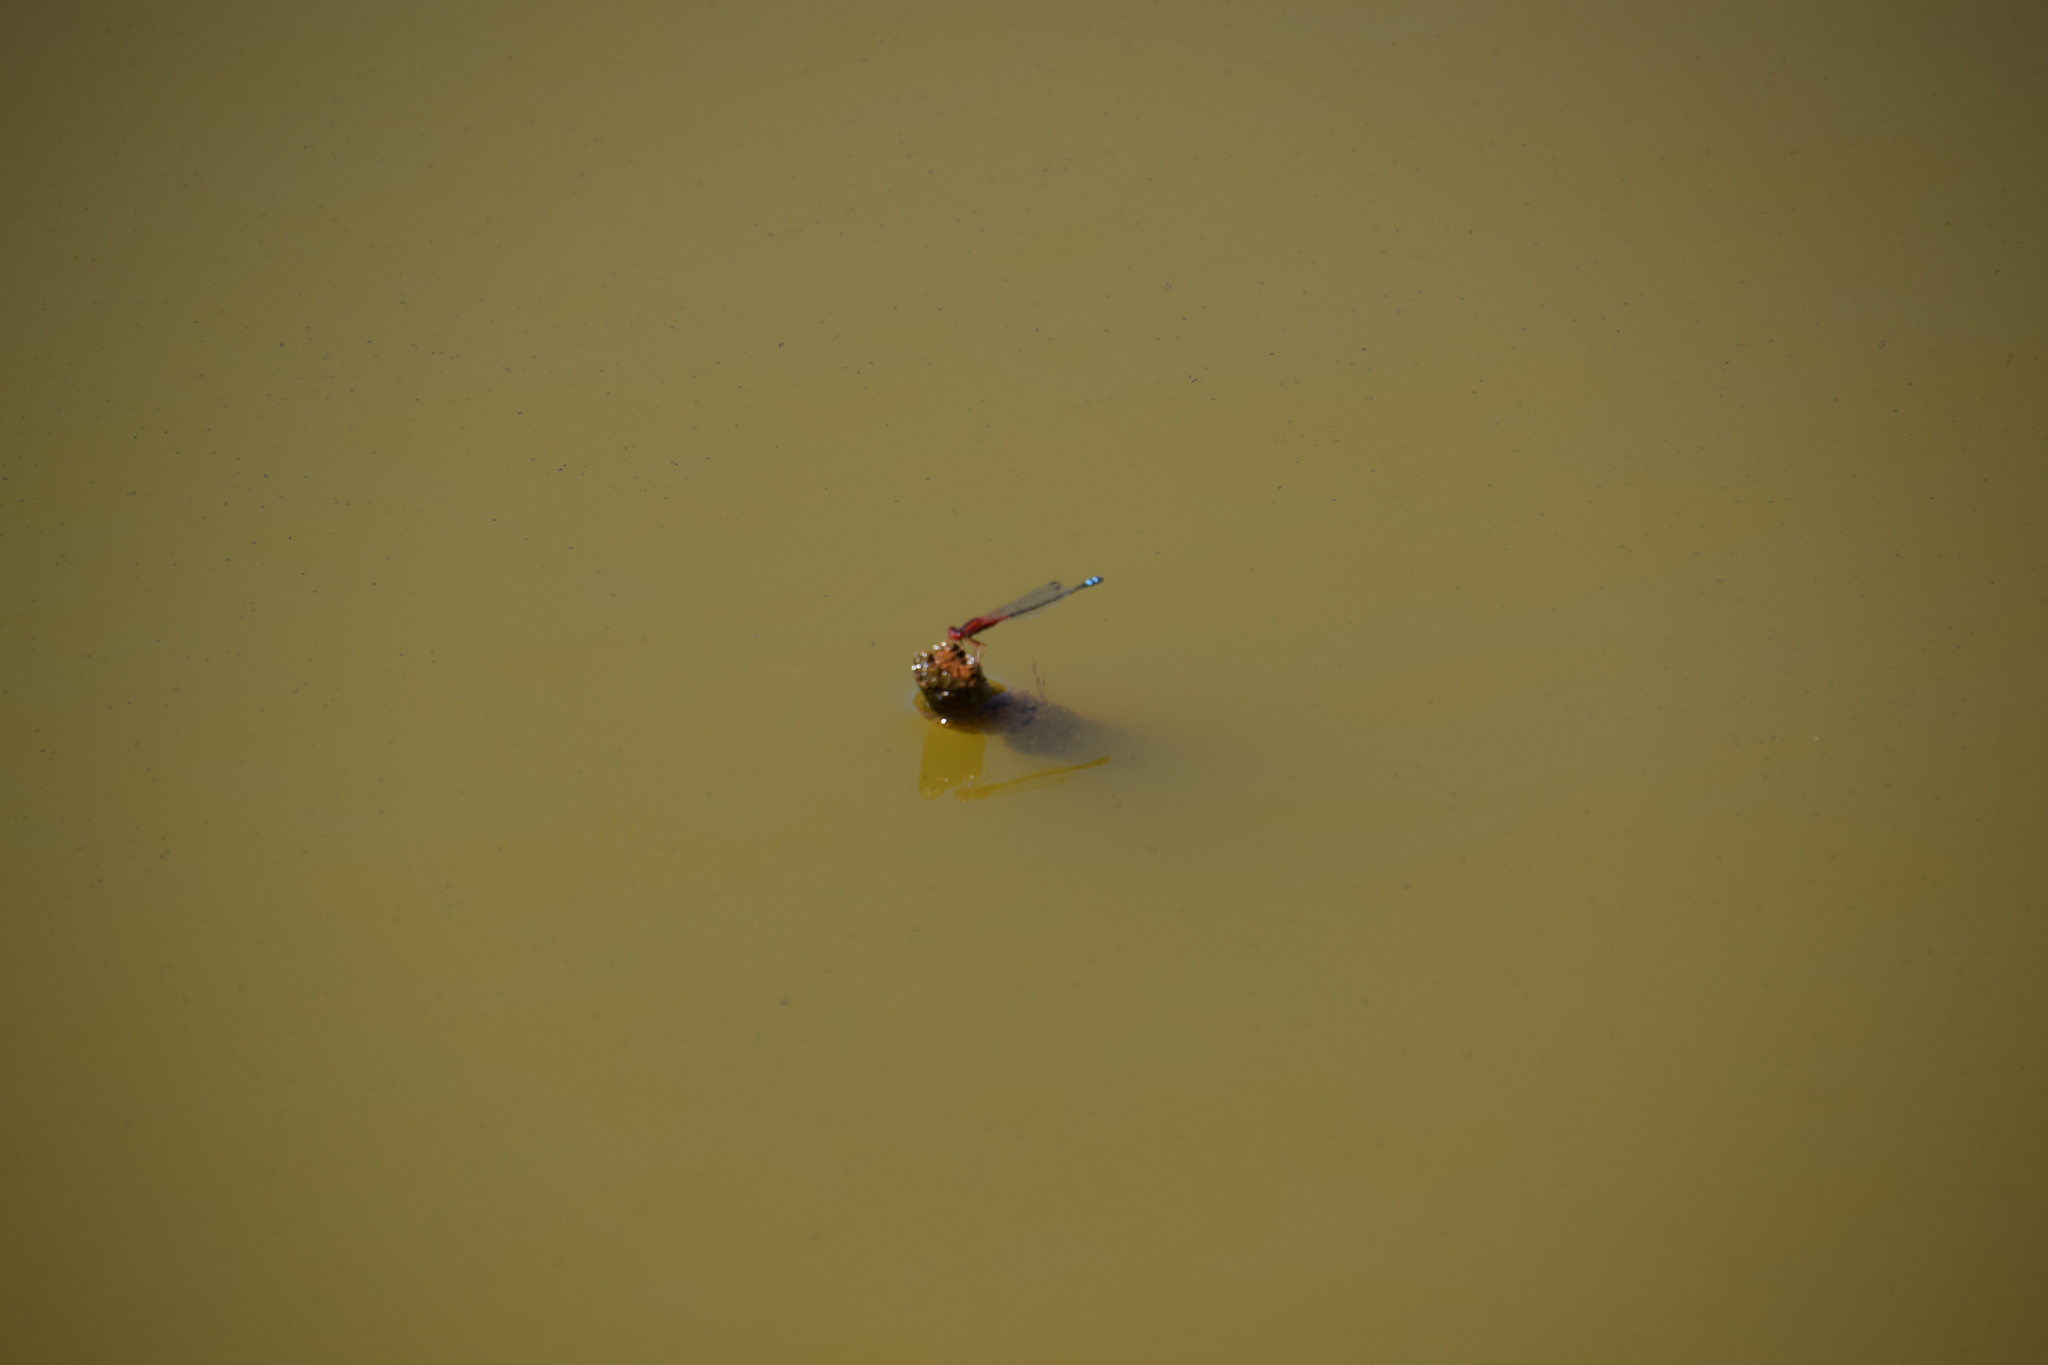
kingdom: Animalia
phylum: Arthropoda
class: Insecta
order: Odonata
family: Coenagrionidae
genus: Xanthagrion
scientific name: Xanthagrion erythroneurum
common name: Red and blue damsel
